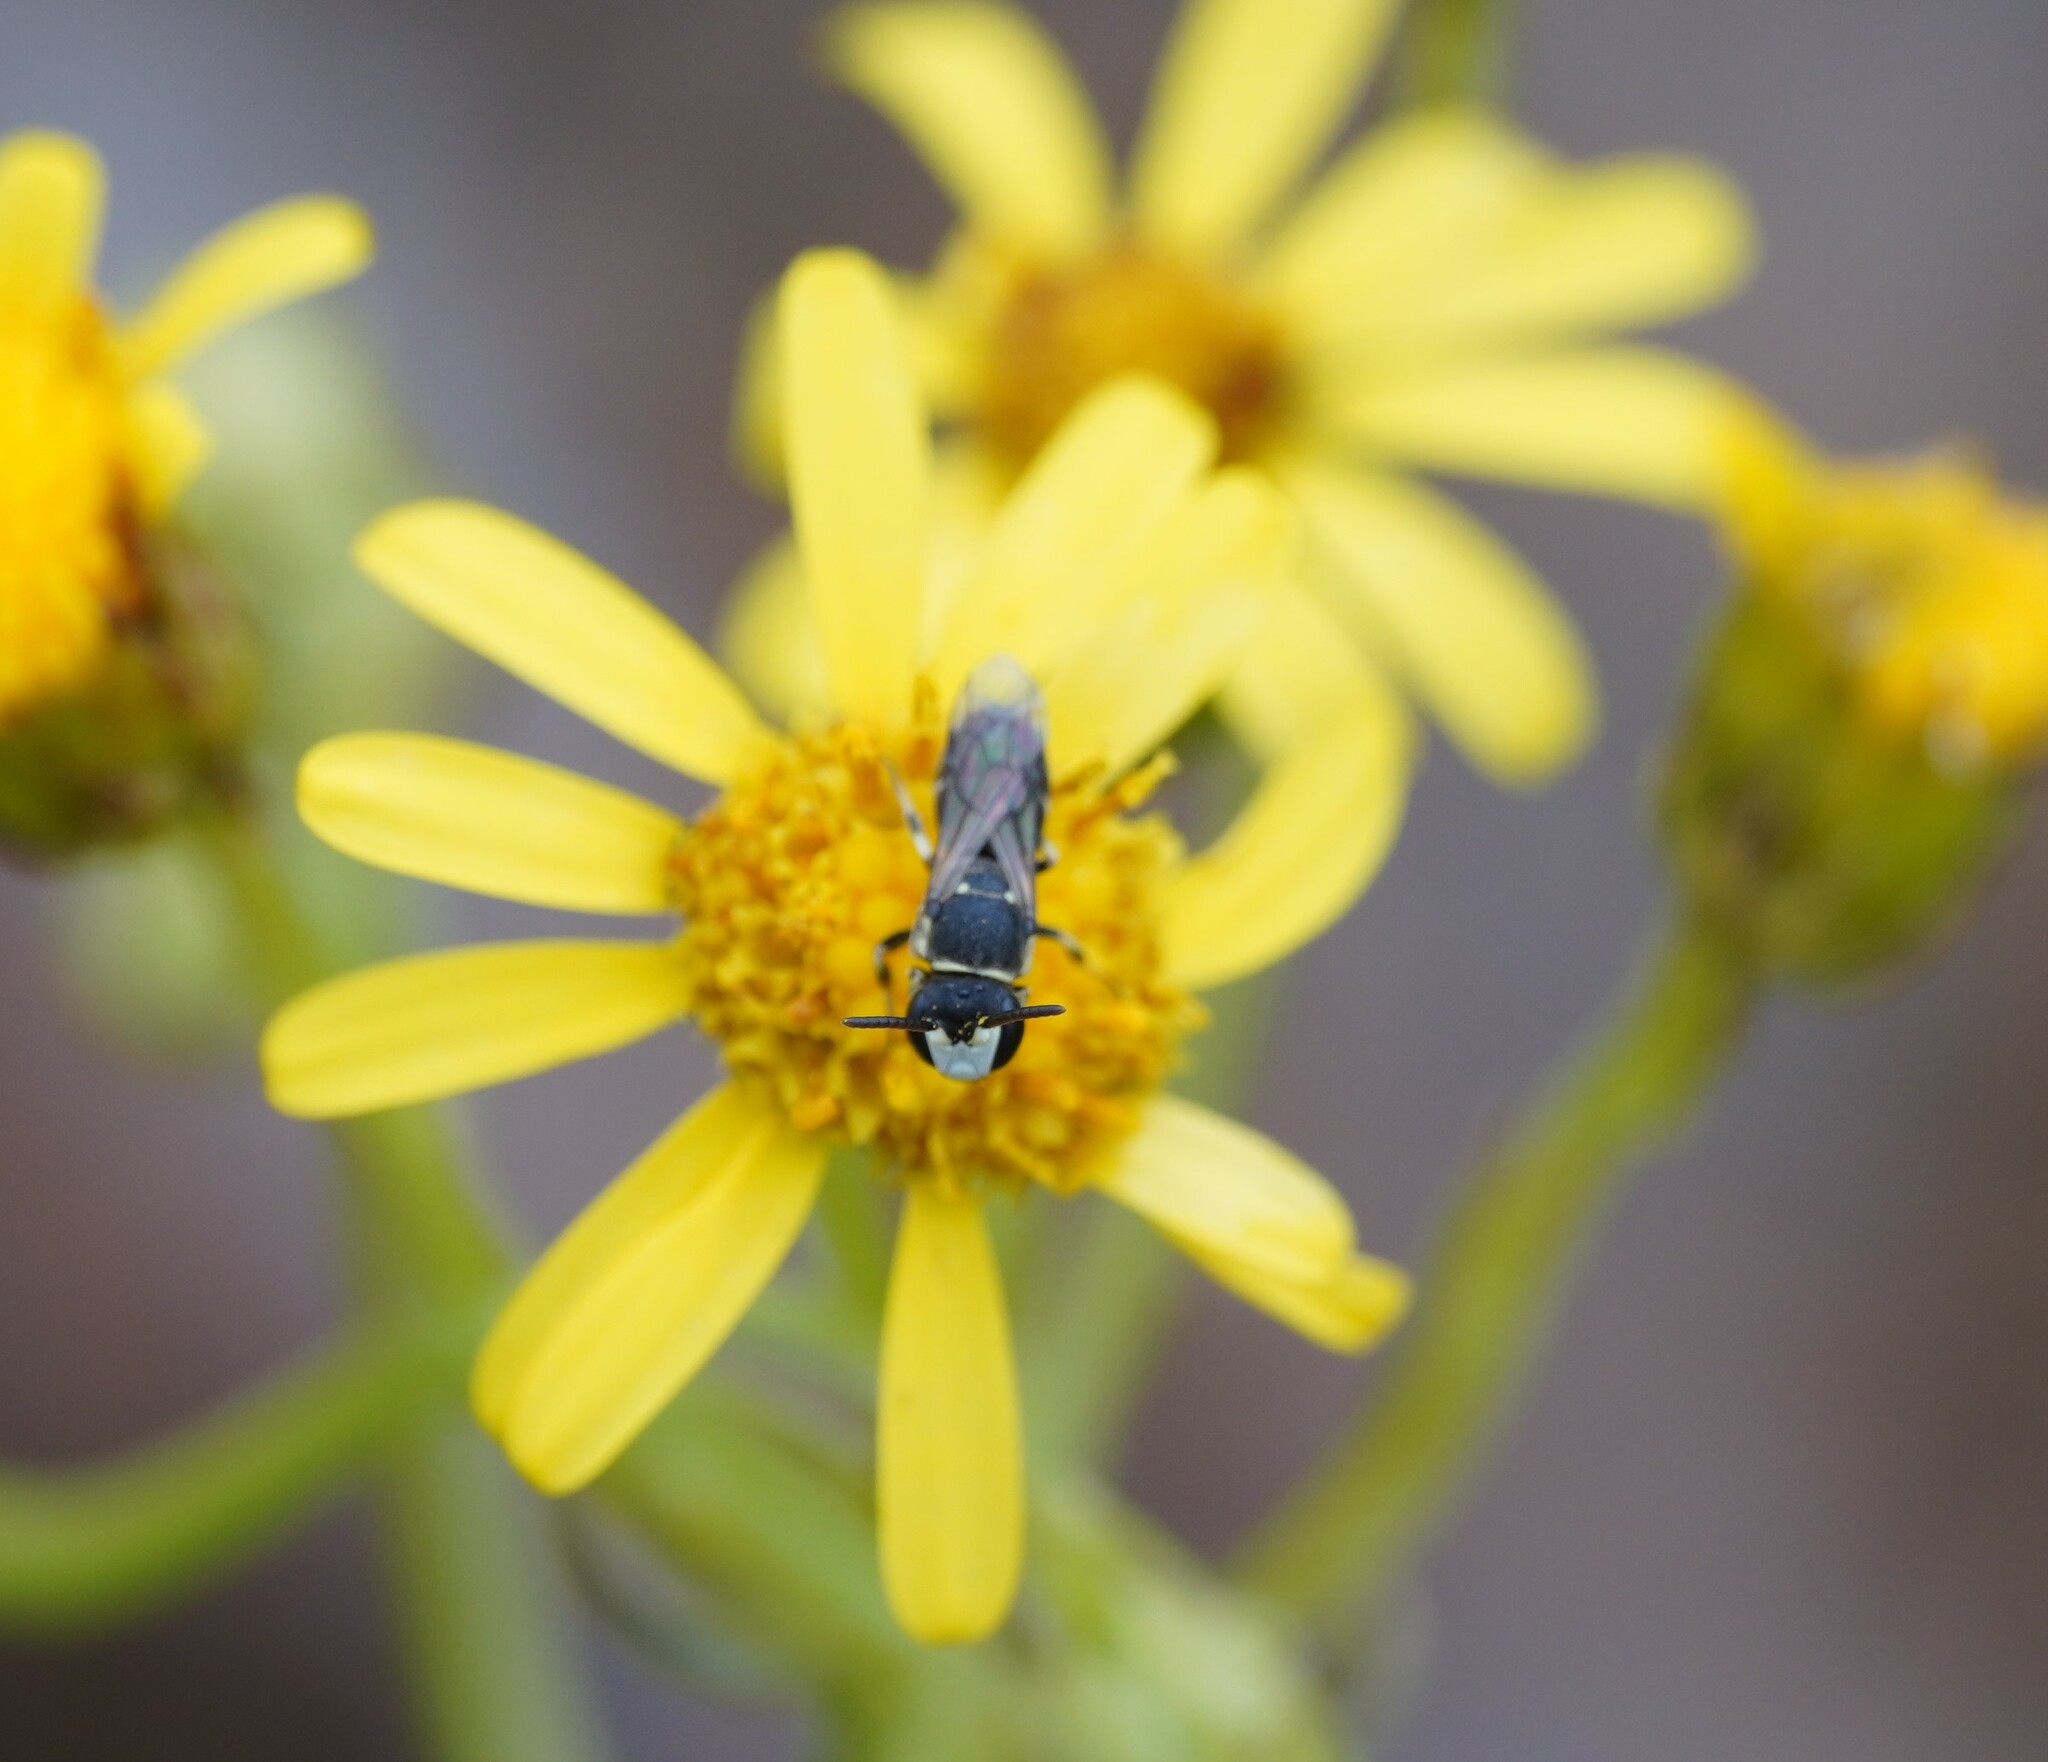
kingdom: Animalia
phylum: Arthropoda
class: Insecta
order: Hymenoptera
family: Colletidae
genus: Hylaeus
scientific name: Hylaeus variegatus
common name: Masked bee
